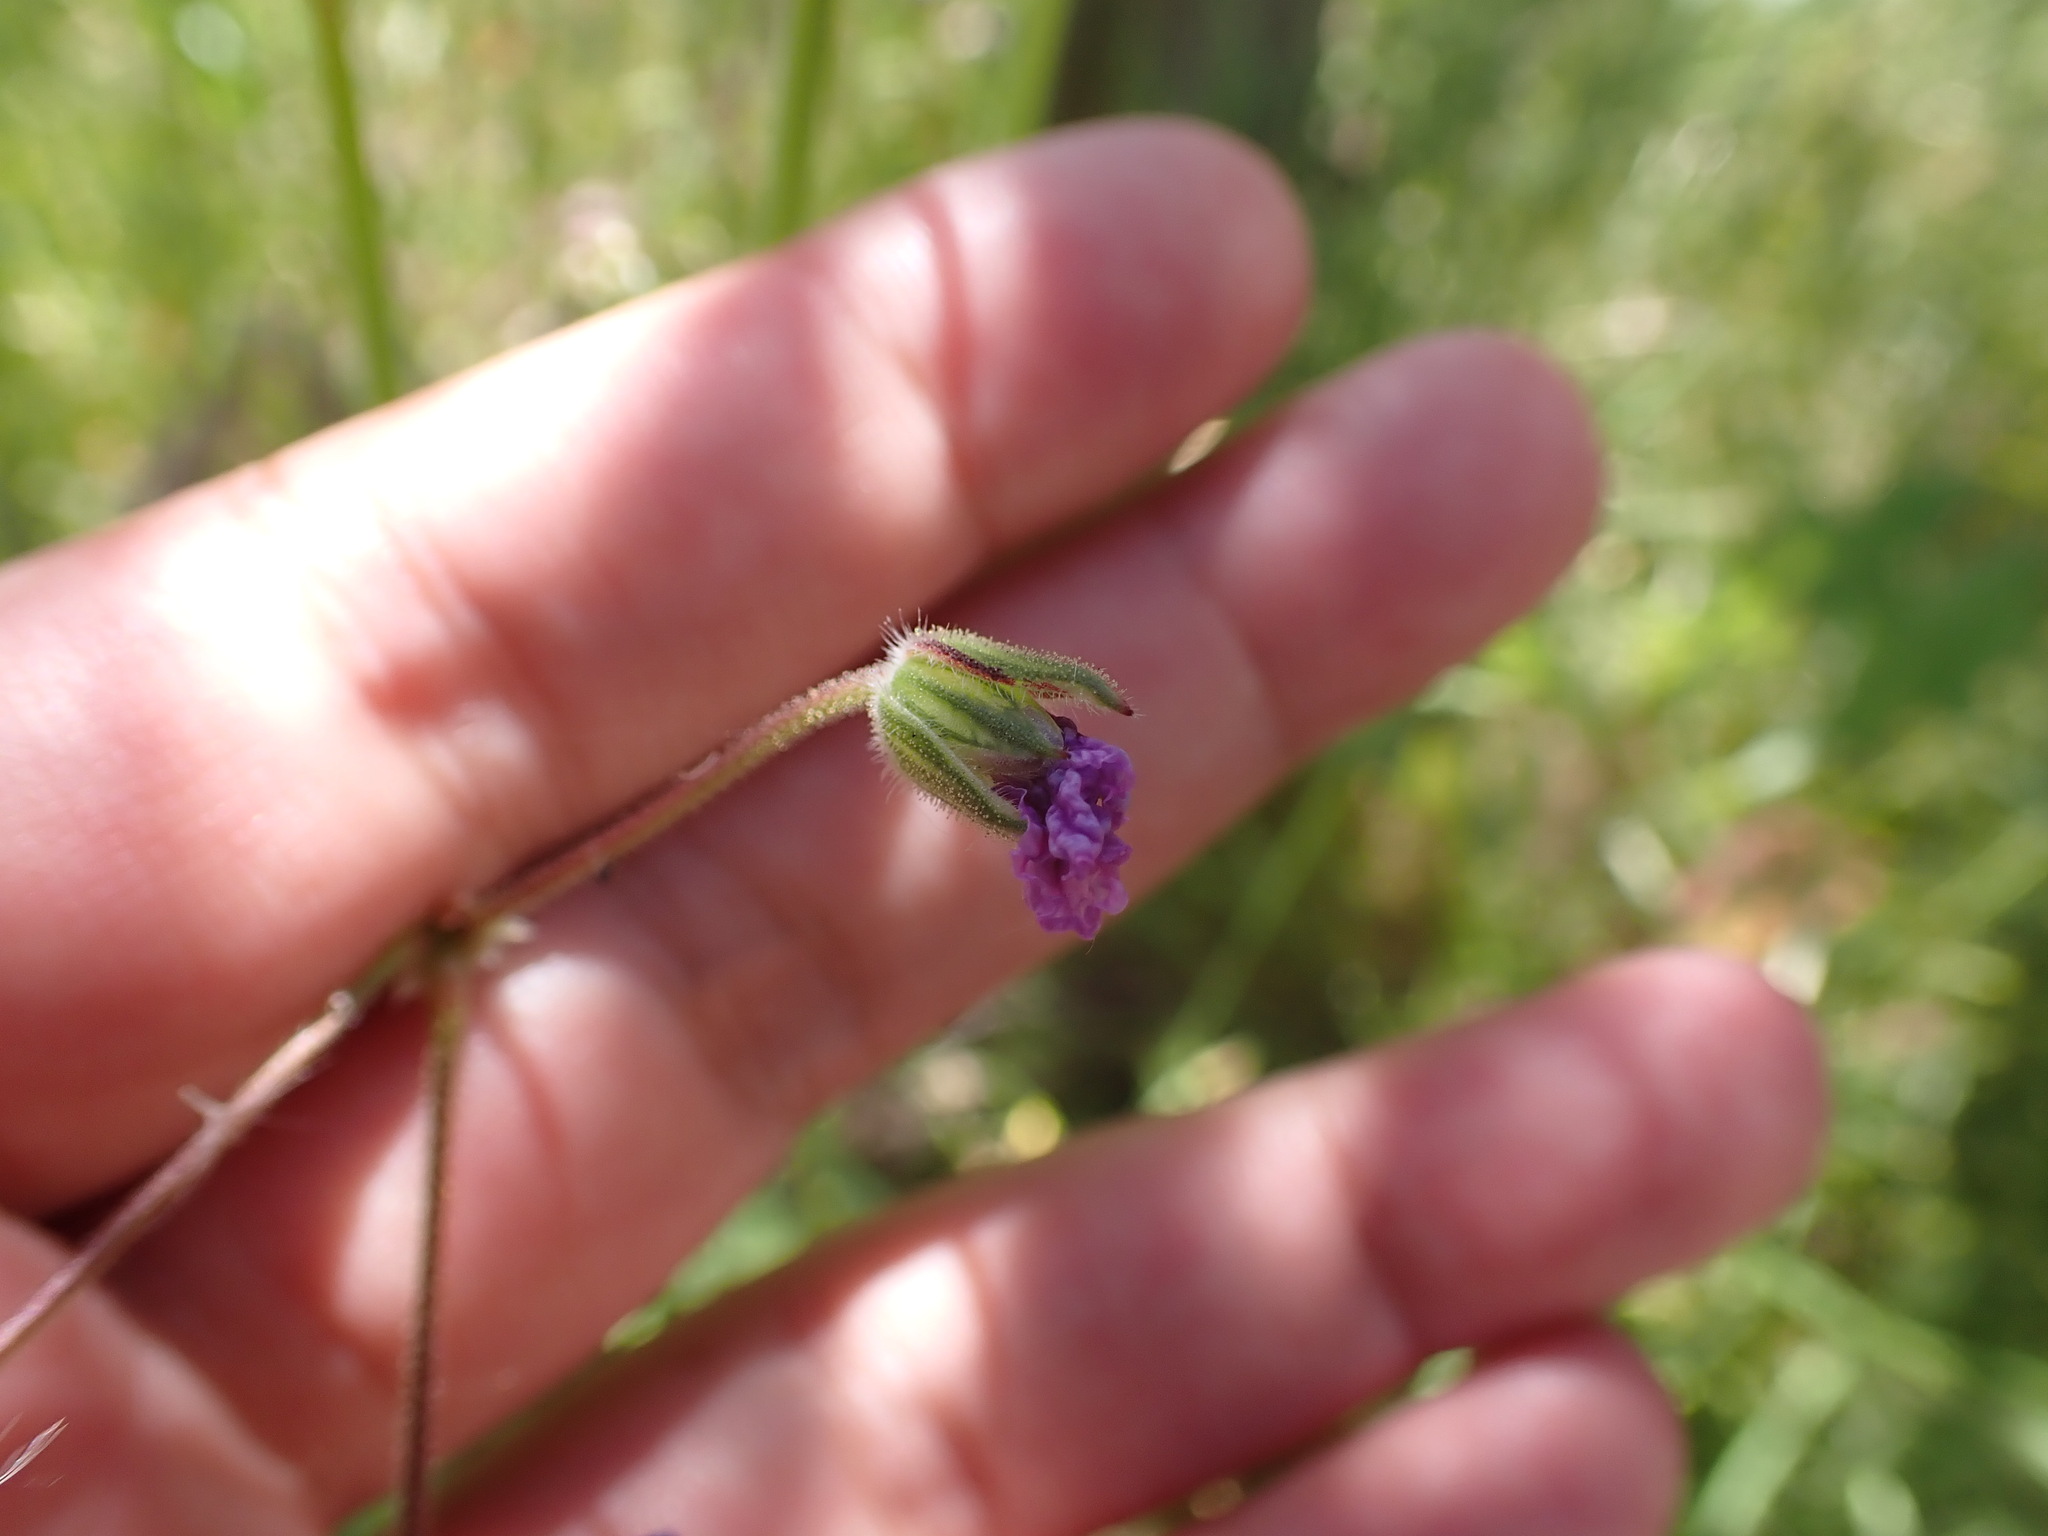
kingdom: Plantae
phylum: Tracheophyta
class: Magnoliopsida
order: Geraniales
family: Geraniaceae
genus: Erodium
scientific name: Erodium botrys
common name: Mediterranean stork's-bill
